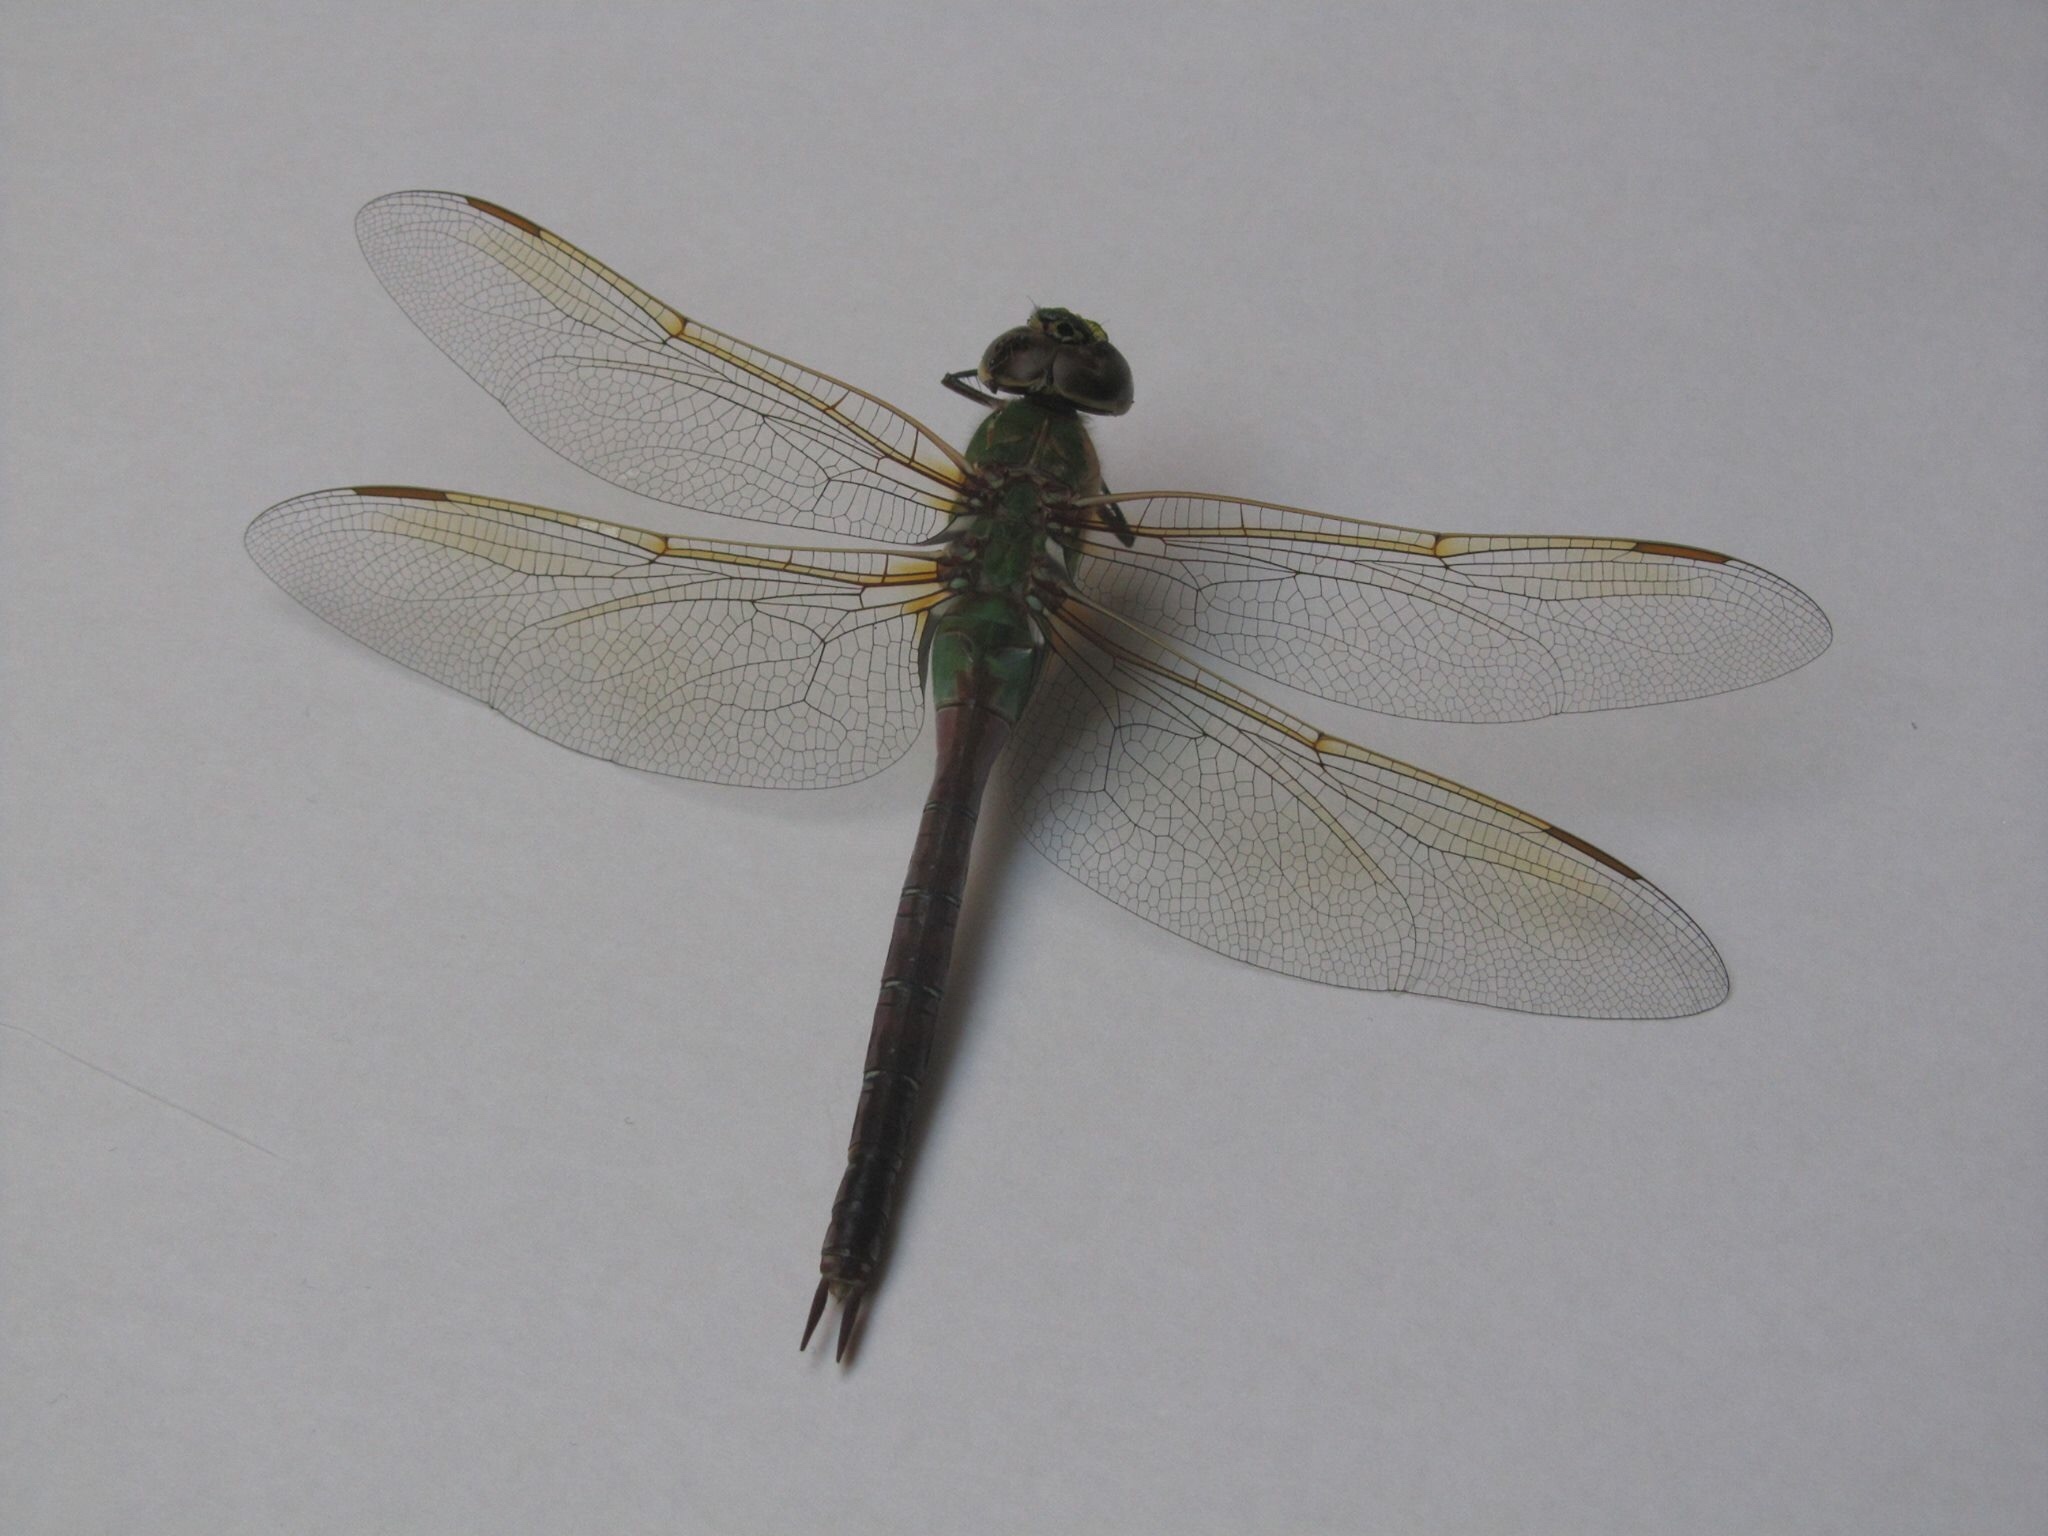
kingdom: Animalia
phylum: Arthropoda
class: Insecta
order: Odonata
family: Aeshnidae
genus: Anax
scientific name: Anax junius
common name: Common green darner
